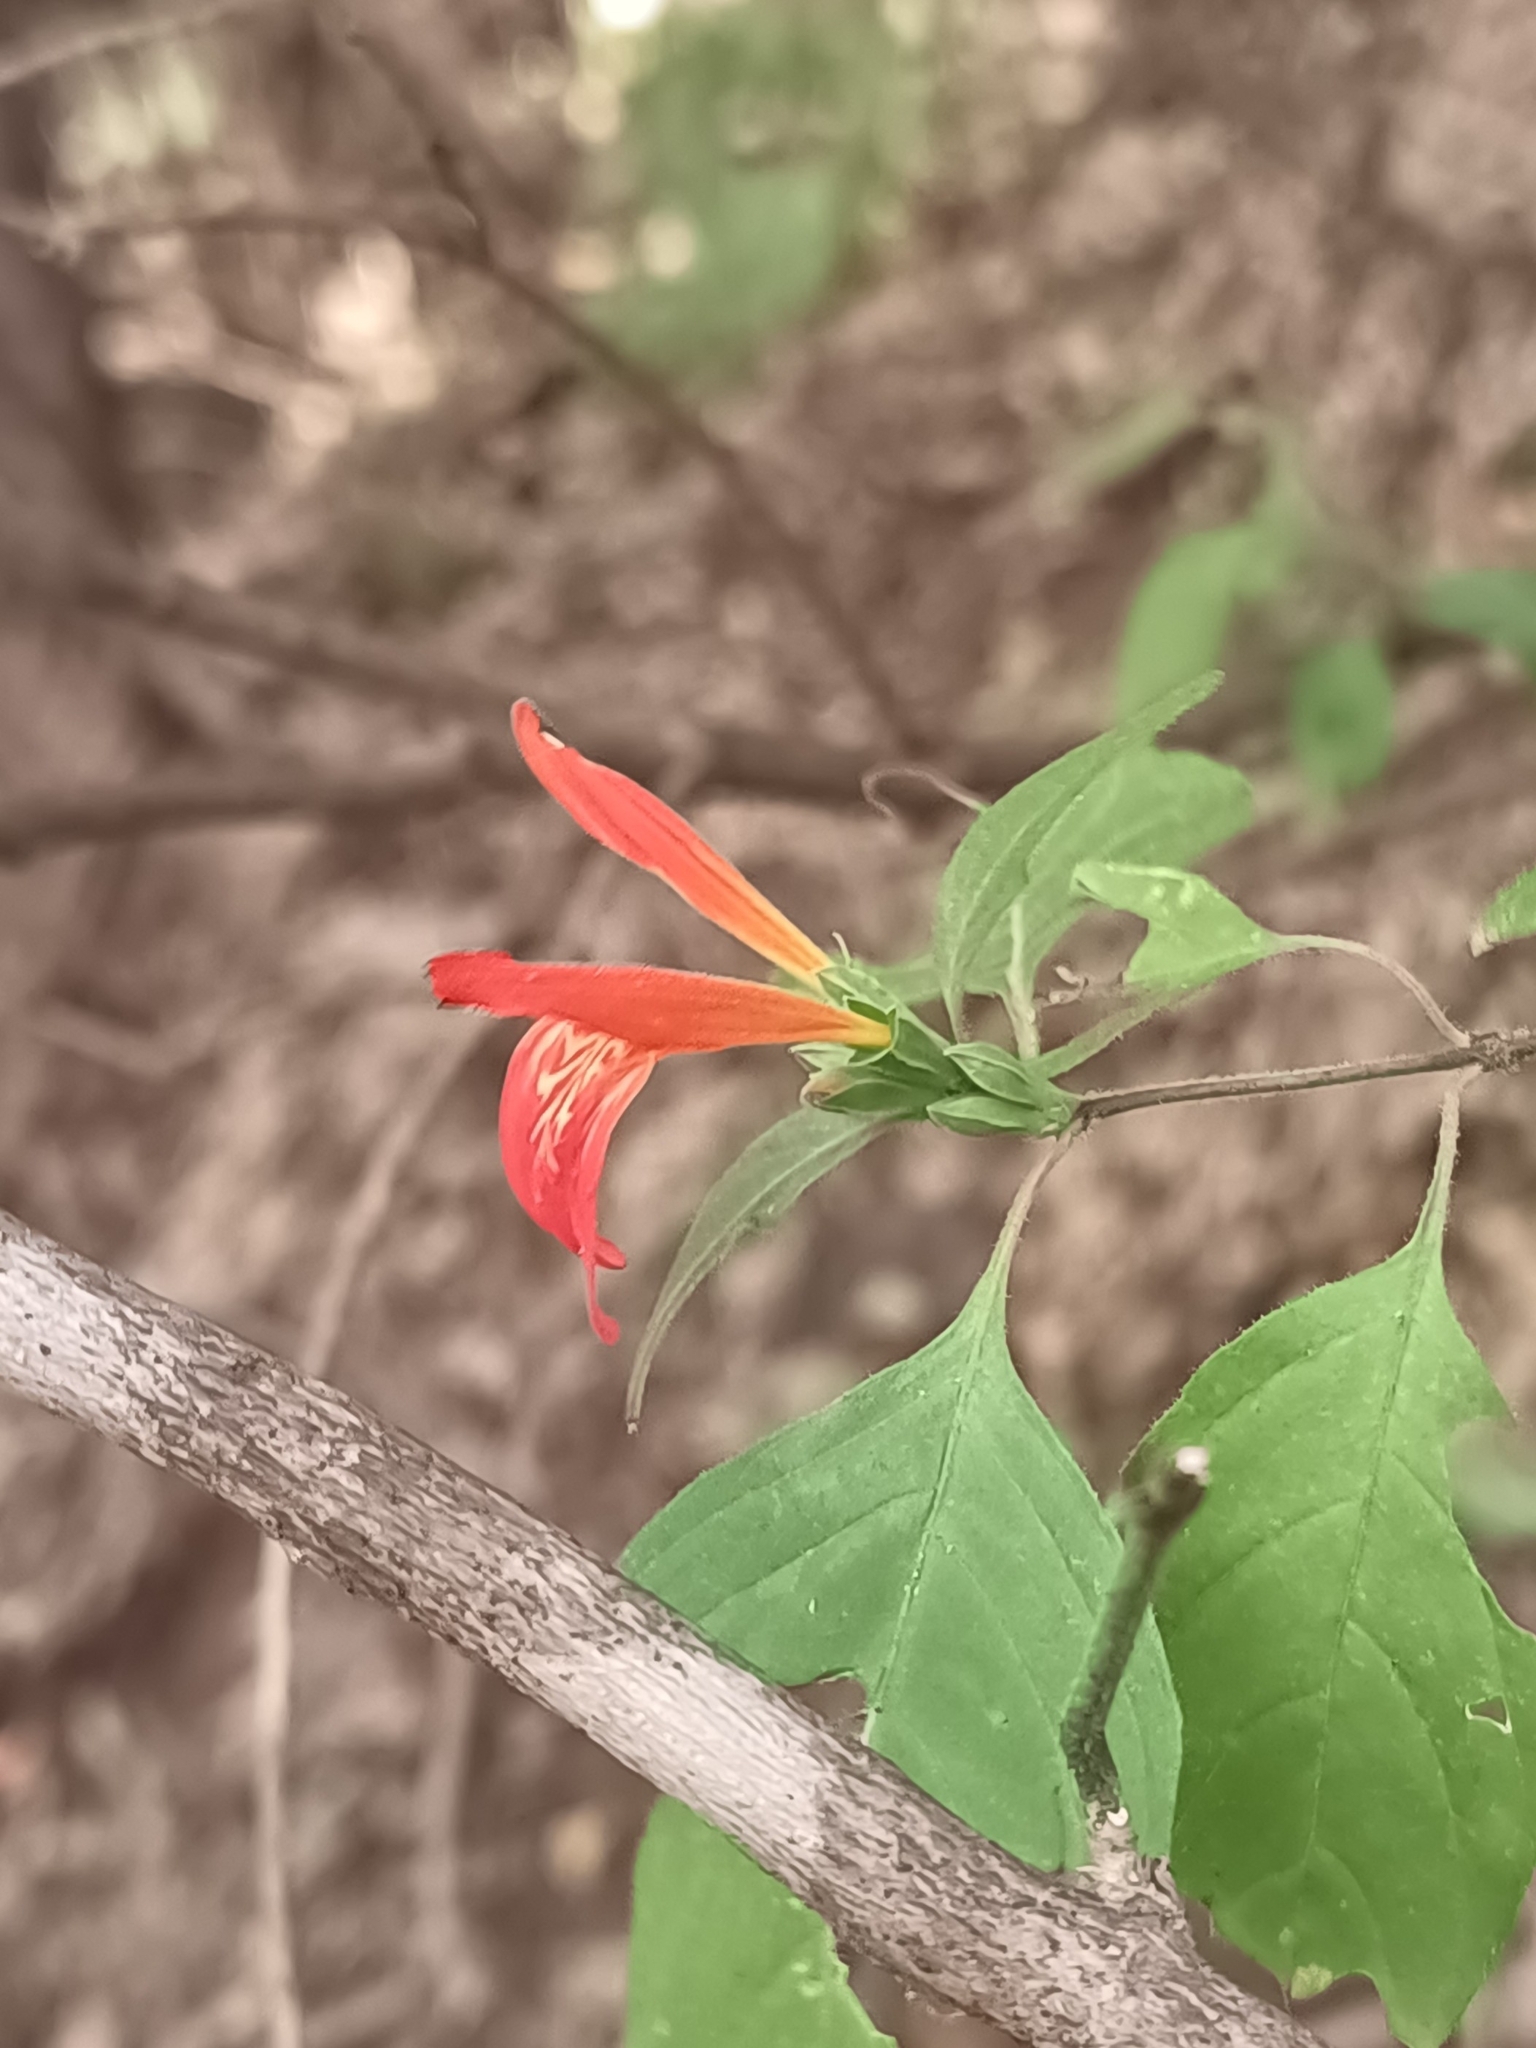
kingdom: Plantae
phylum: Tracheophyta
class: Magnoliopsida
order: Lamiales
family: Acanthaceae
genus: Dianthera
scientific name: Dianthera candicans
